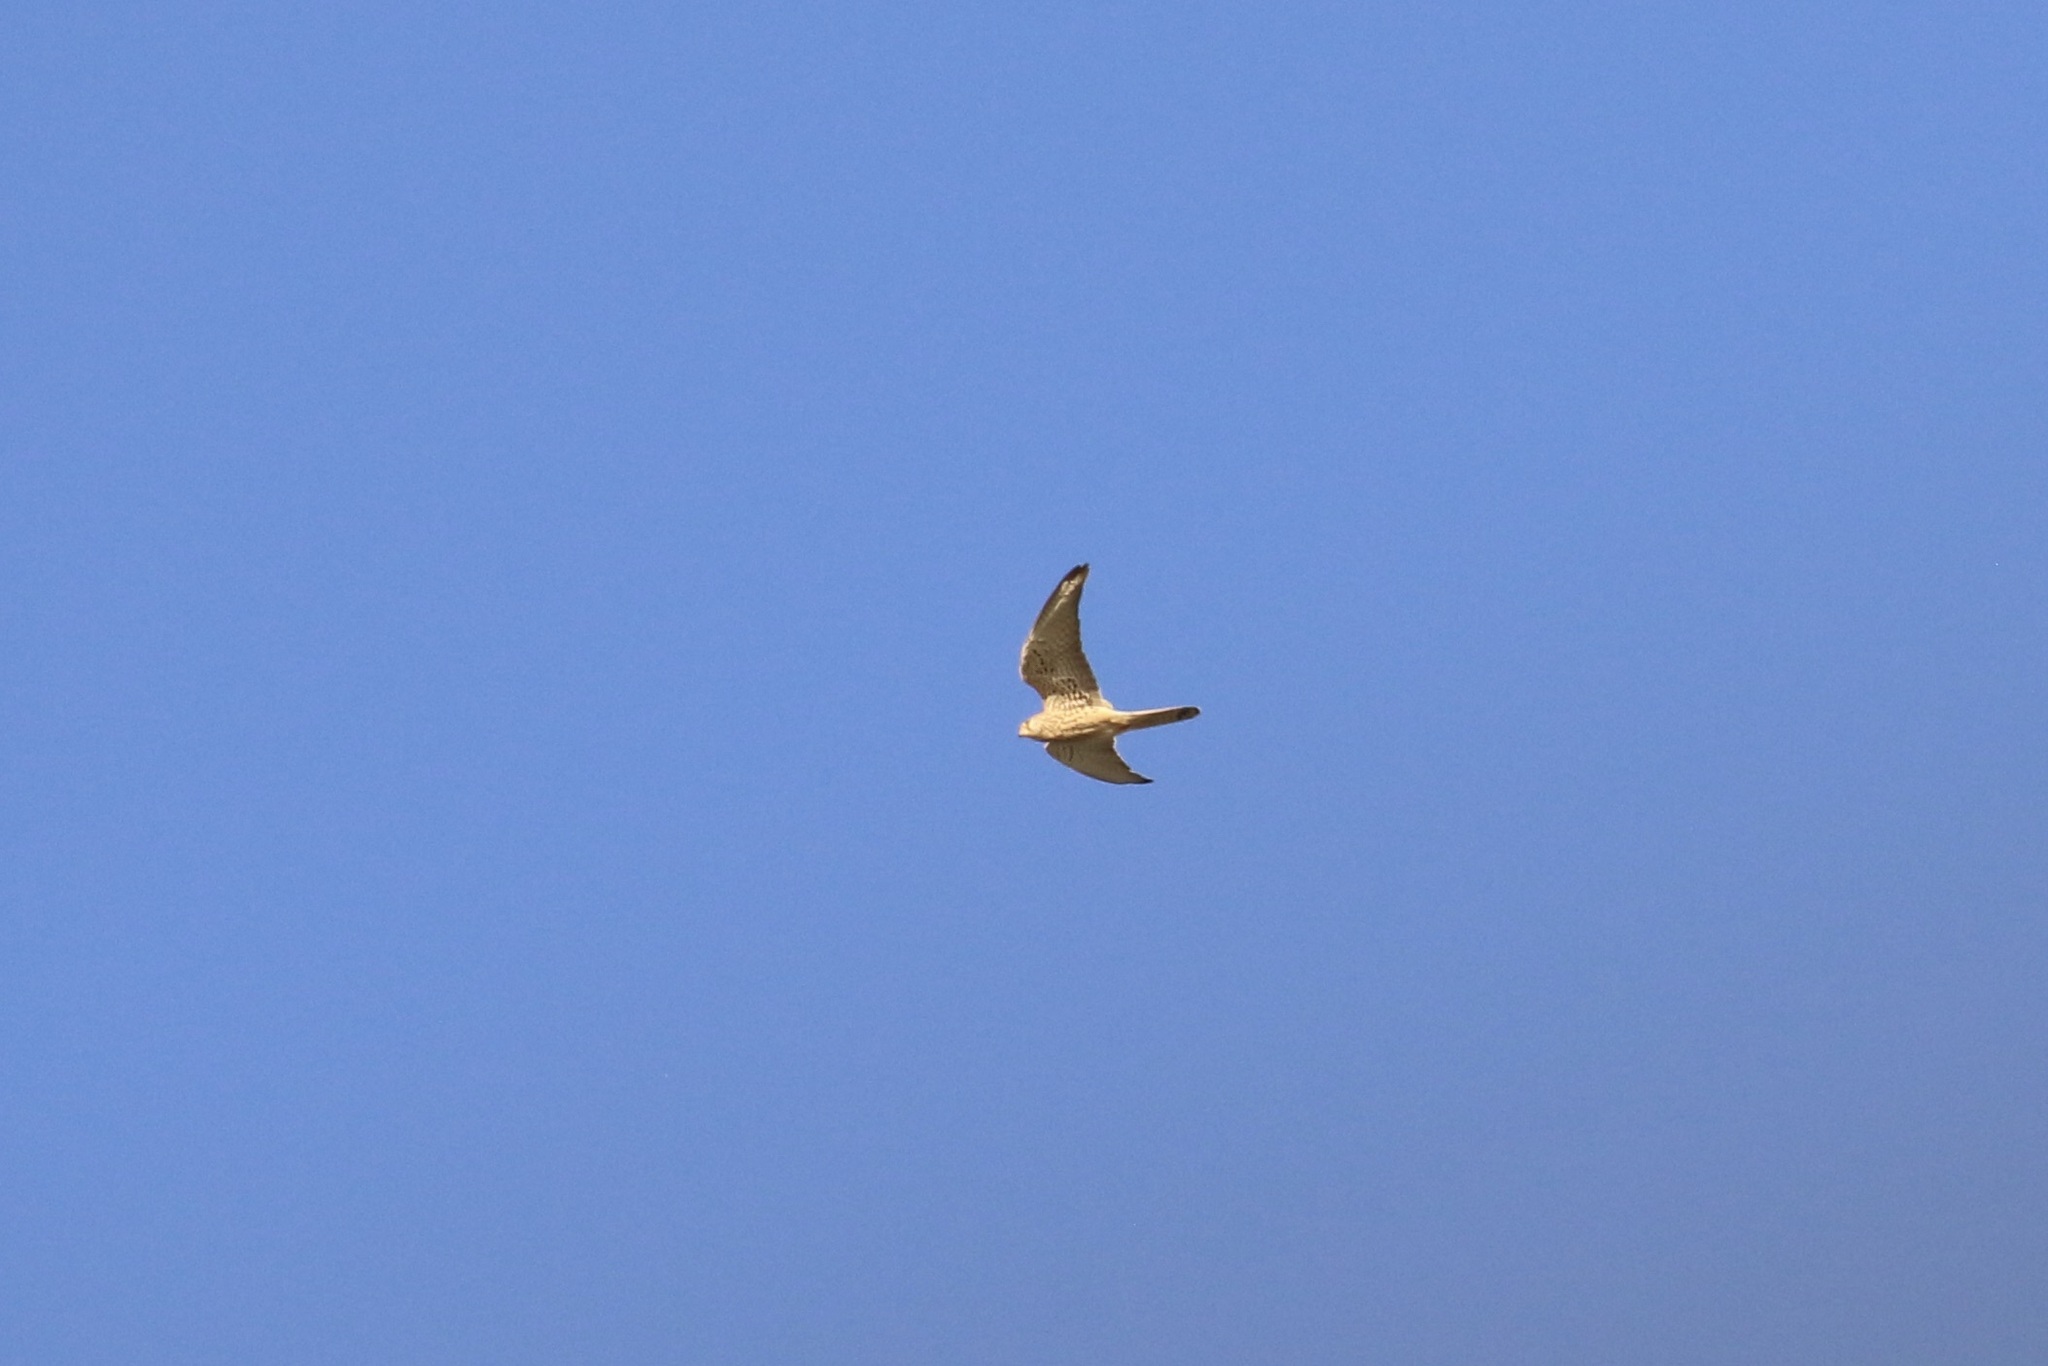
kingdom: Animalia
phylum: Chordata
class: Aves
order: Falconiformes
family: Falconidae
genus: Falco
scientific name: Falco tinnunculus
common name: Common kestrel
